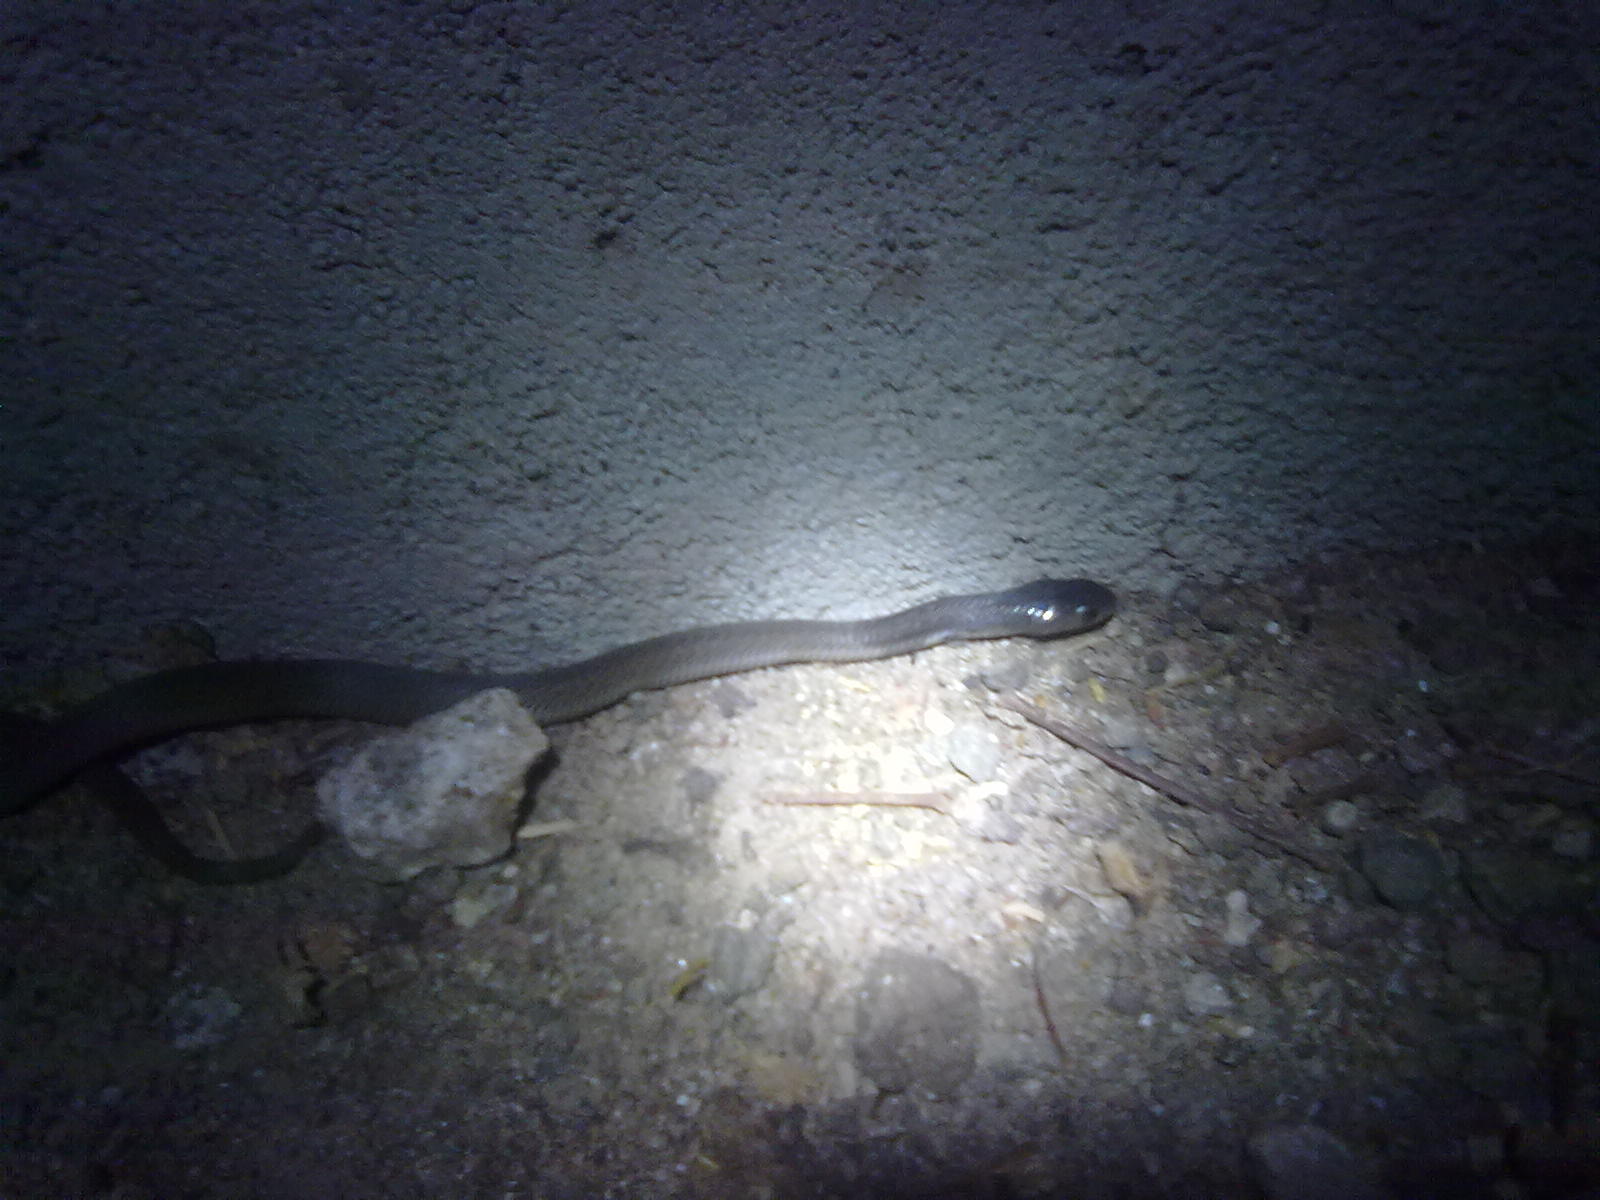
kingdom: Animalia
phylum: Chordata
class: Squamata
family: Elapidae
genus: Naja
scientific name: Naja naja
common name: Indian cobra
